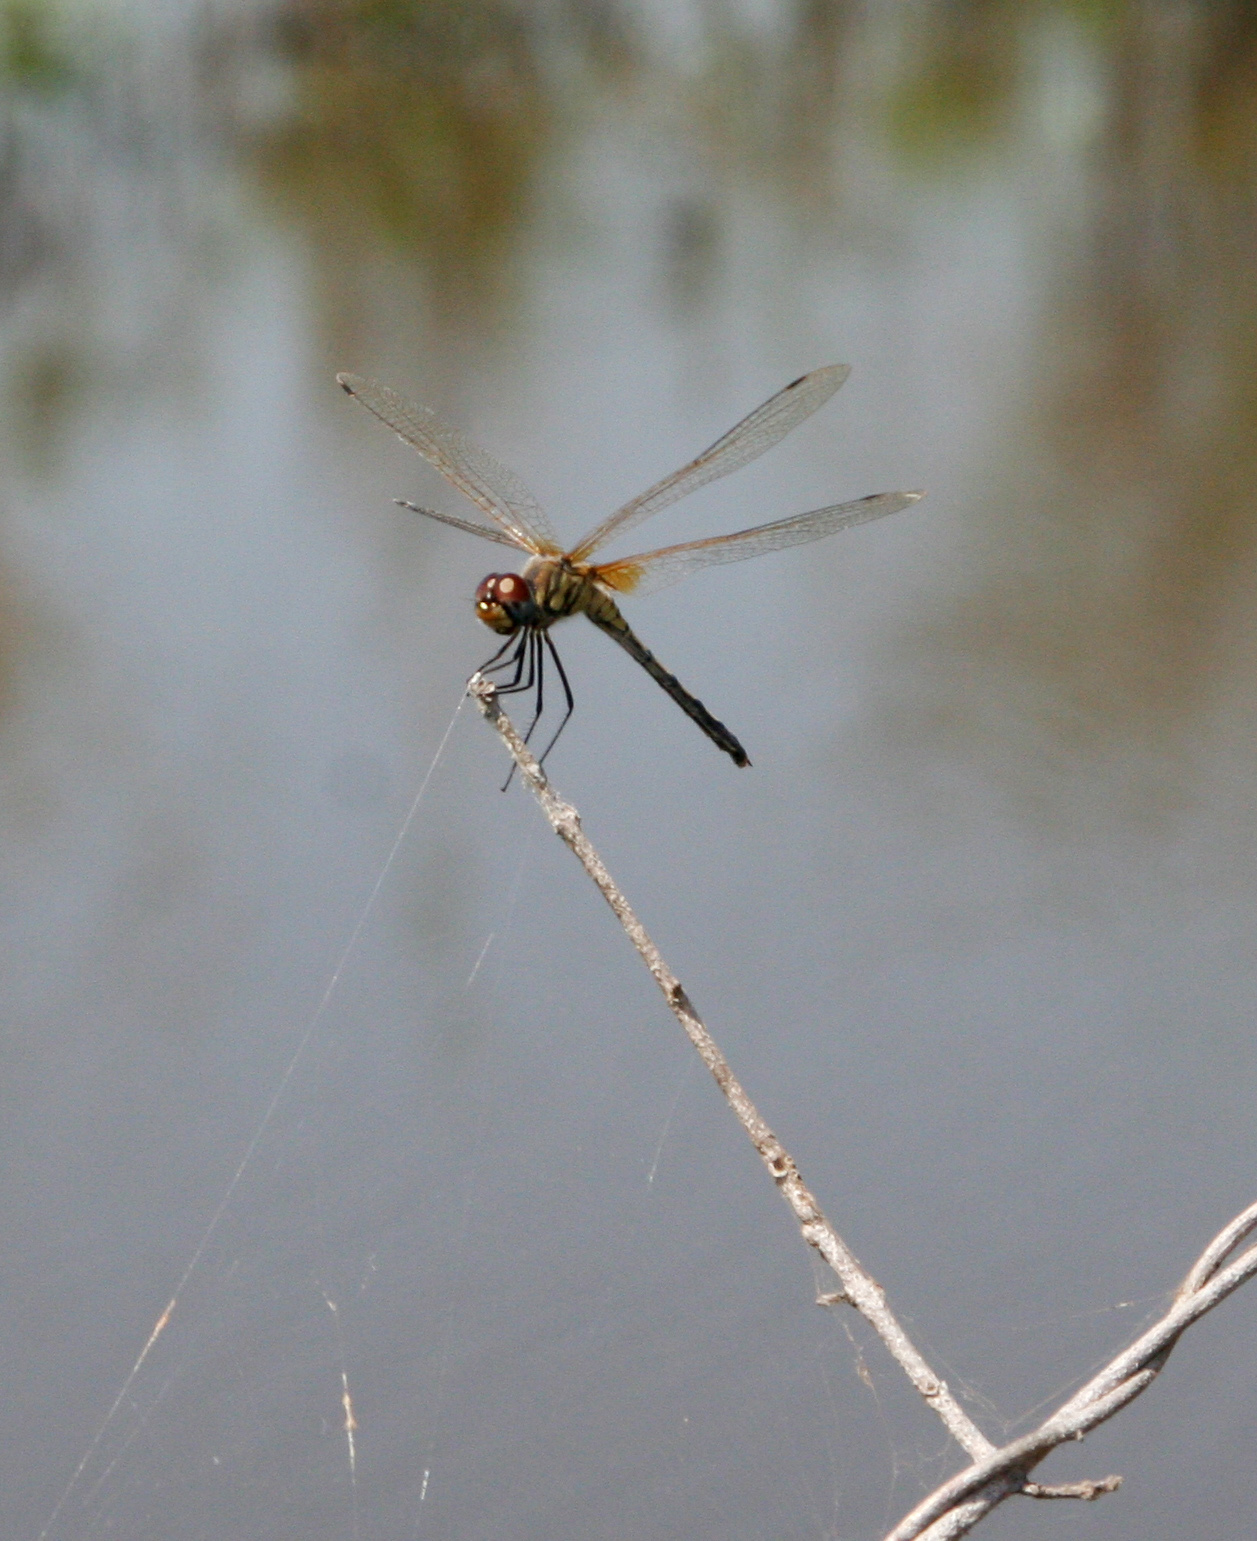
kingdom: Animalia
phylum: Arthropoda
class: Insecta
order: Odonata
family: Libellulidae
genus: Trithemis
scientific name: Trithemis pallidinervis
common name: Dancing dropwing
